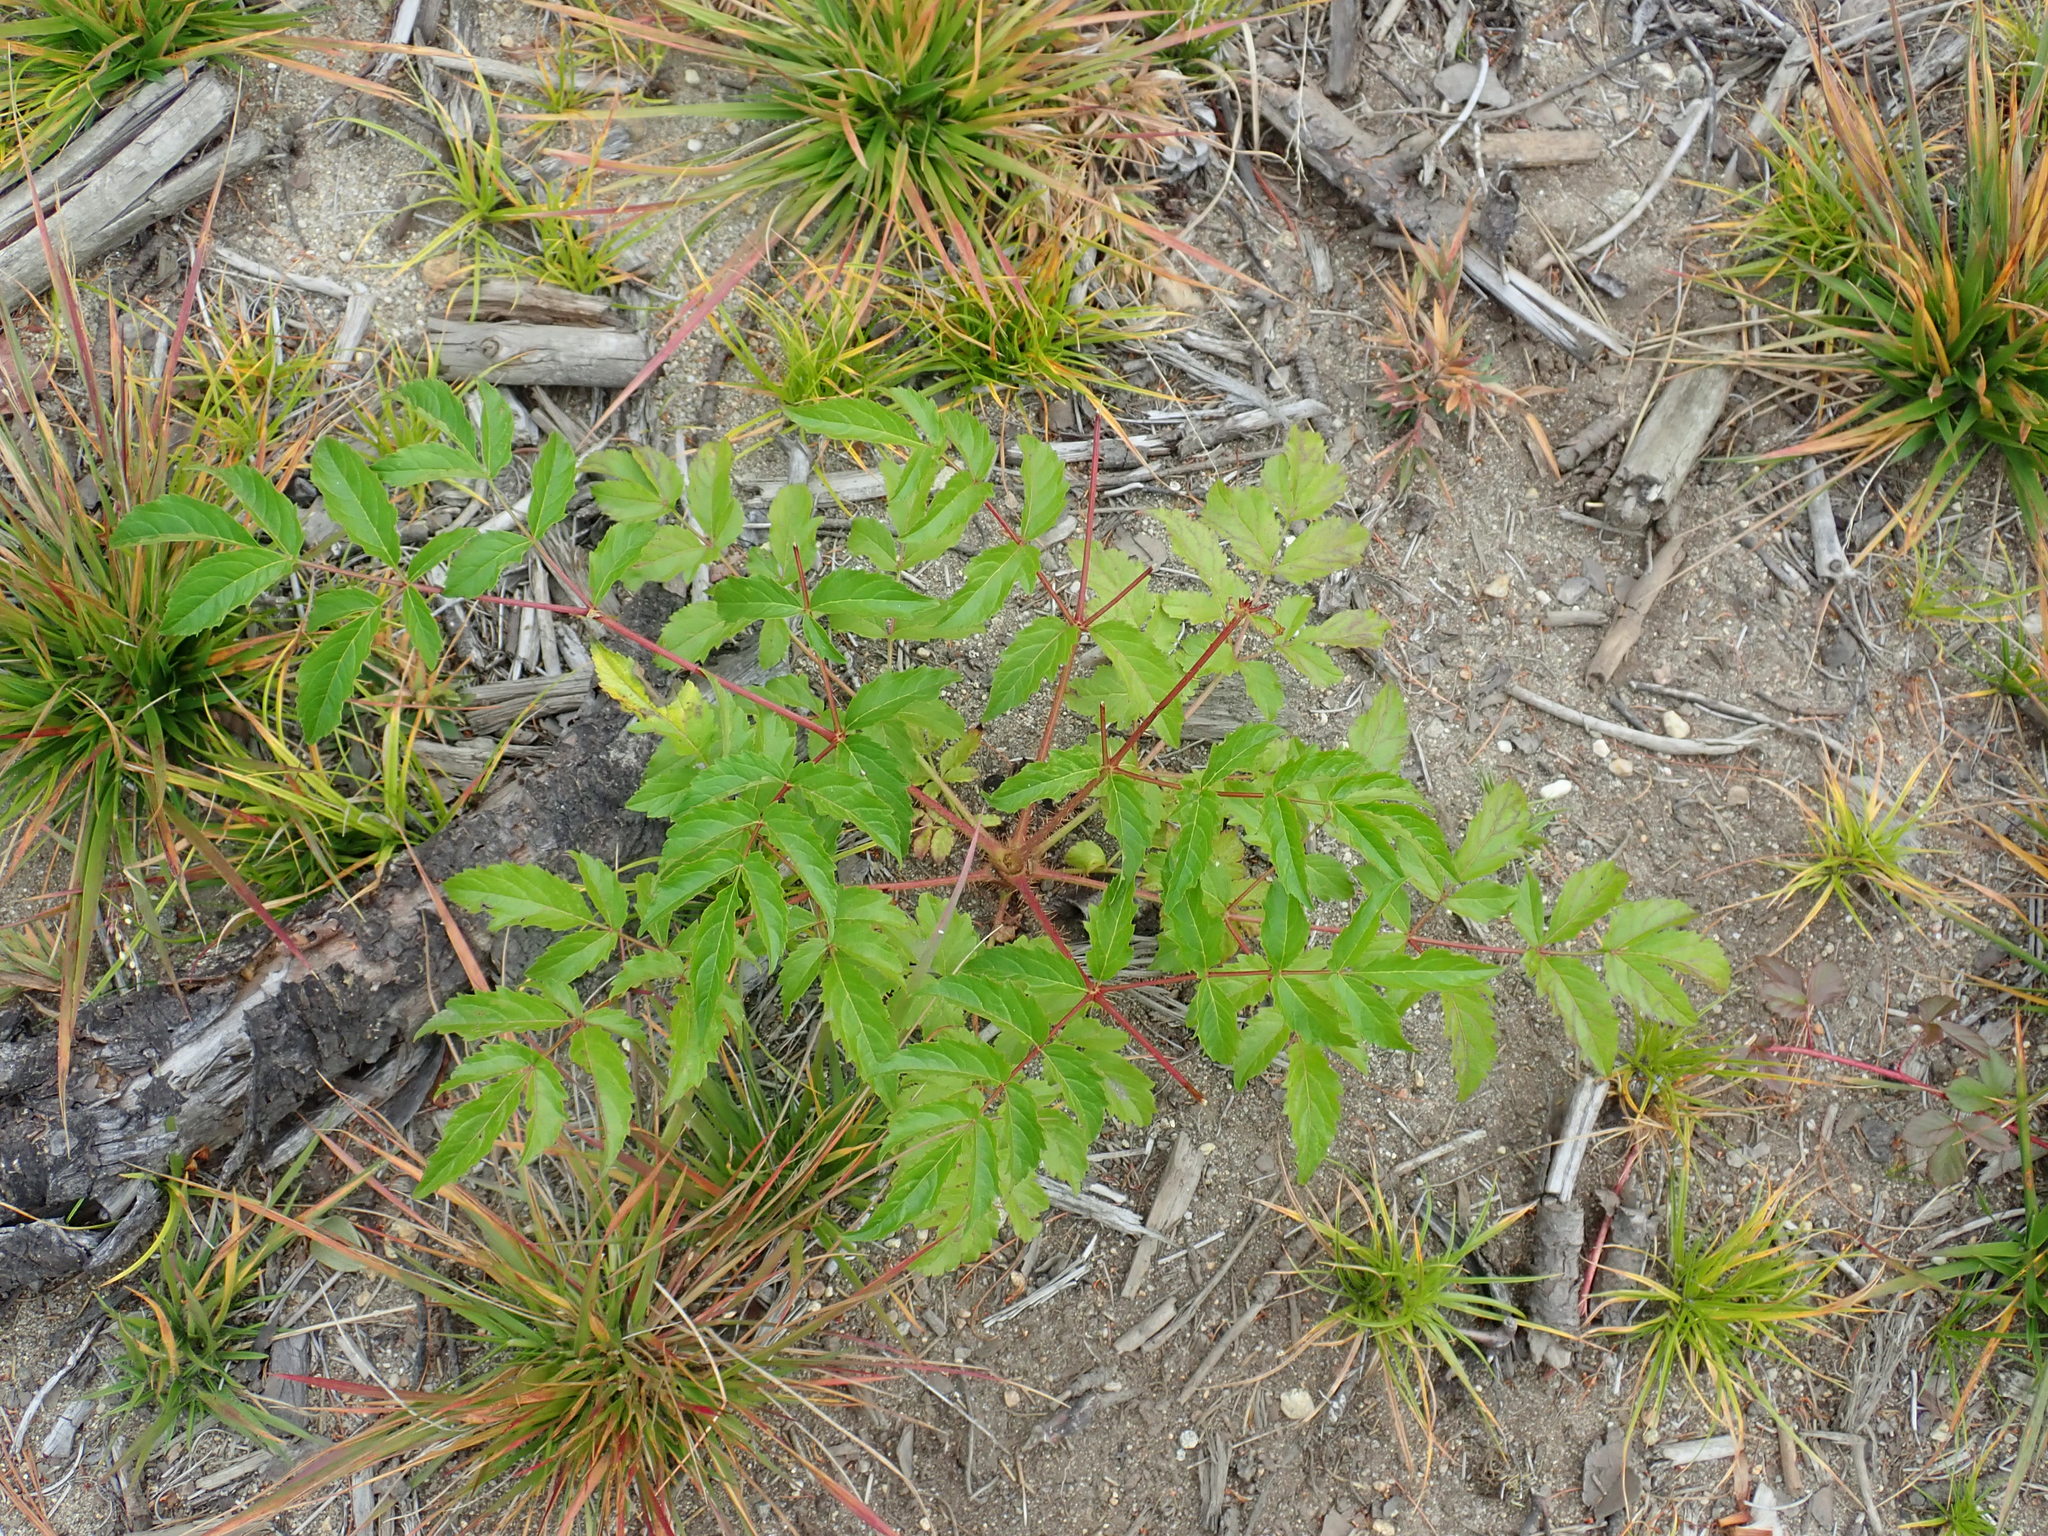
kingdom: Plantae
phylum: Tracheophyta
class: Magnoliopsida
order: Apiales
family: Araliaceae
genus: Aralia
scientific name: Aralia hispida
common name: Bristly sarsaparilla
